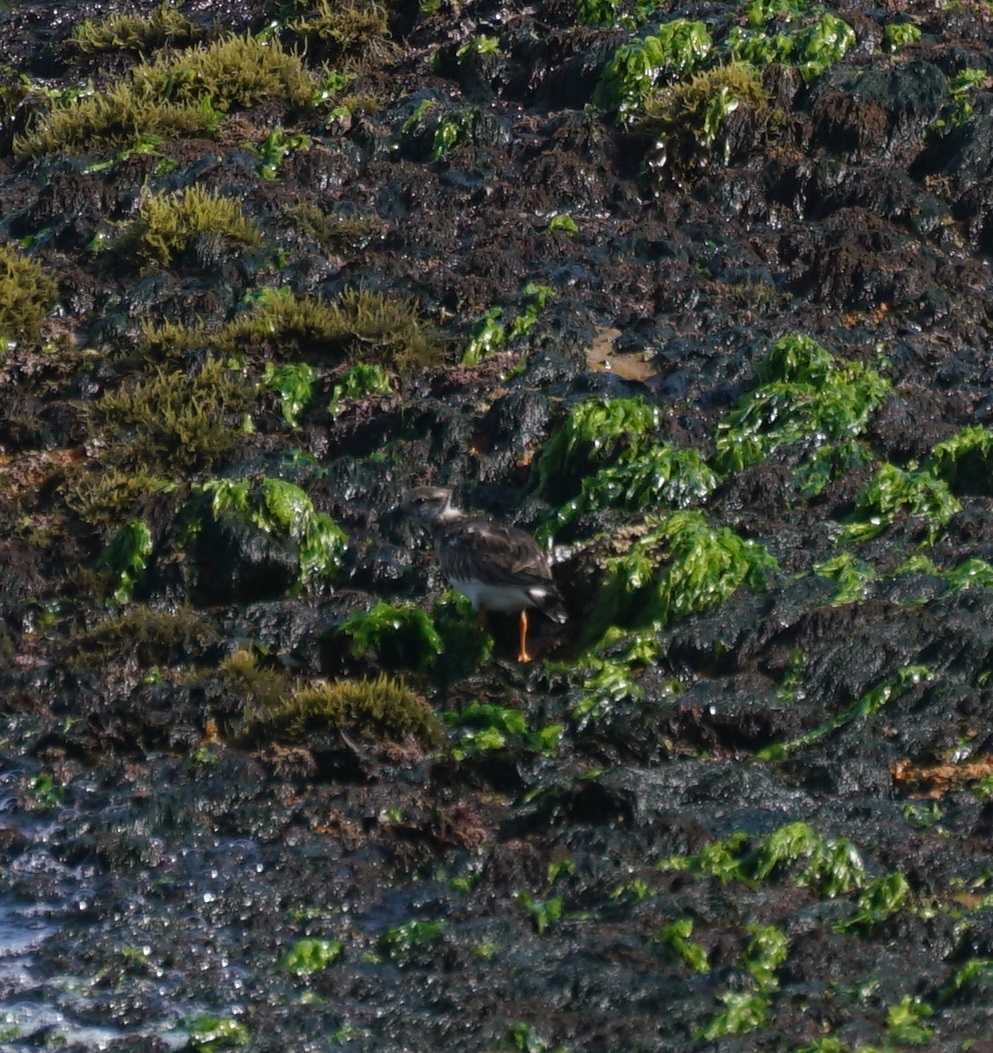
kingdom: Animalia
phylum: Chordata
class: Aves
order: Charadriiformes
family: Scolopacidae
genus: Arenaria
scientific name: Arenaria interpres
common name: Ruddy turnstone
